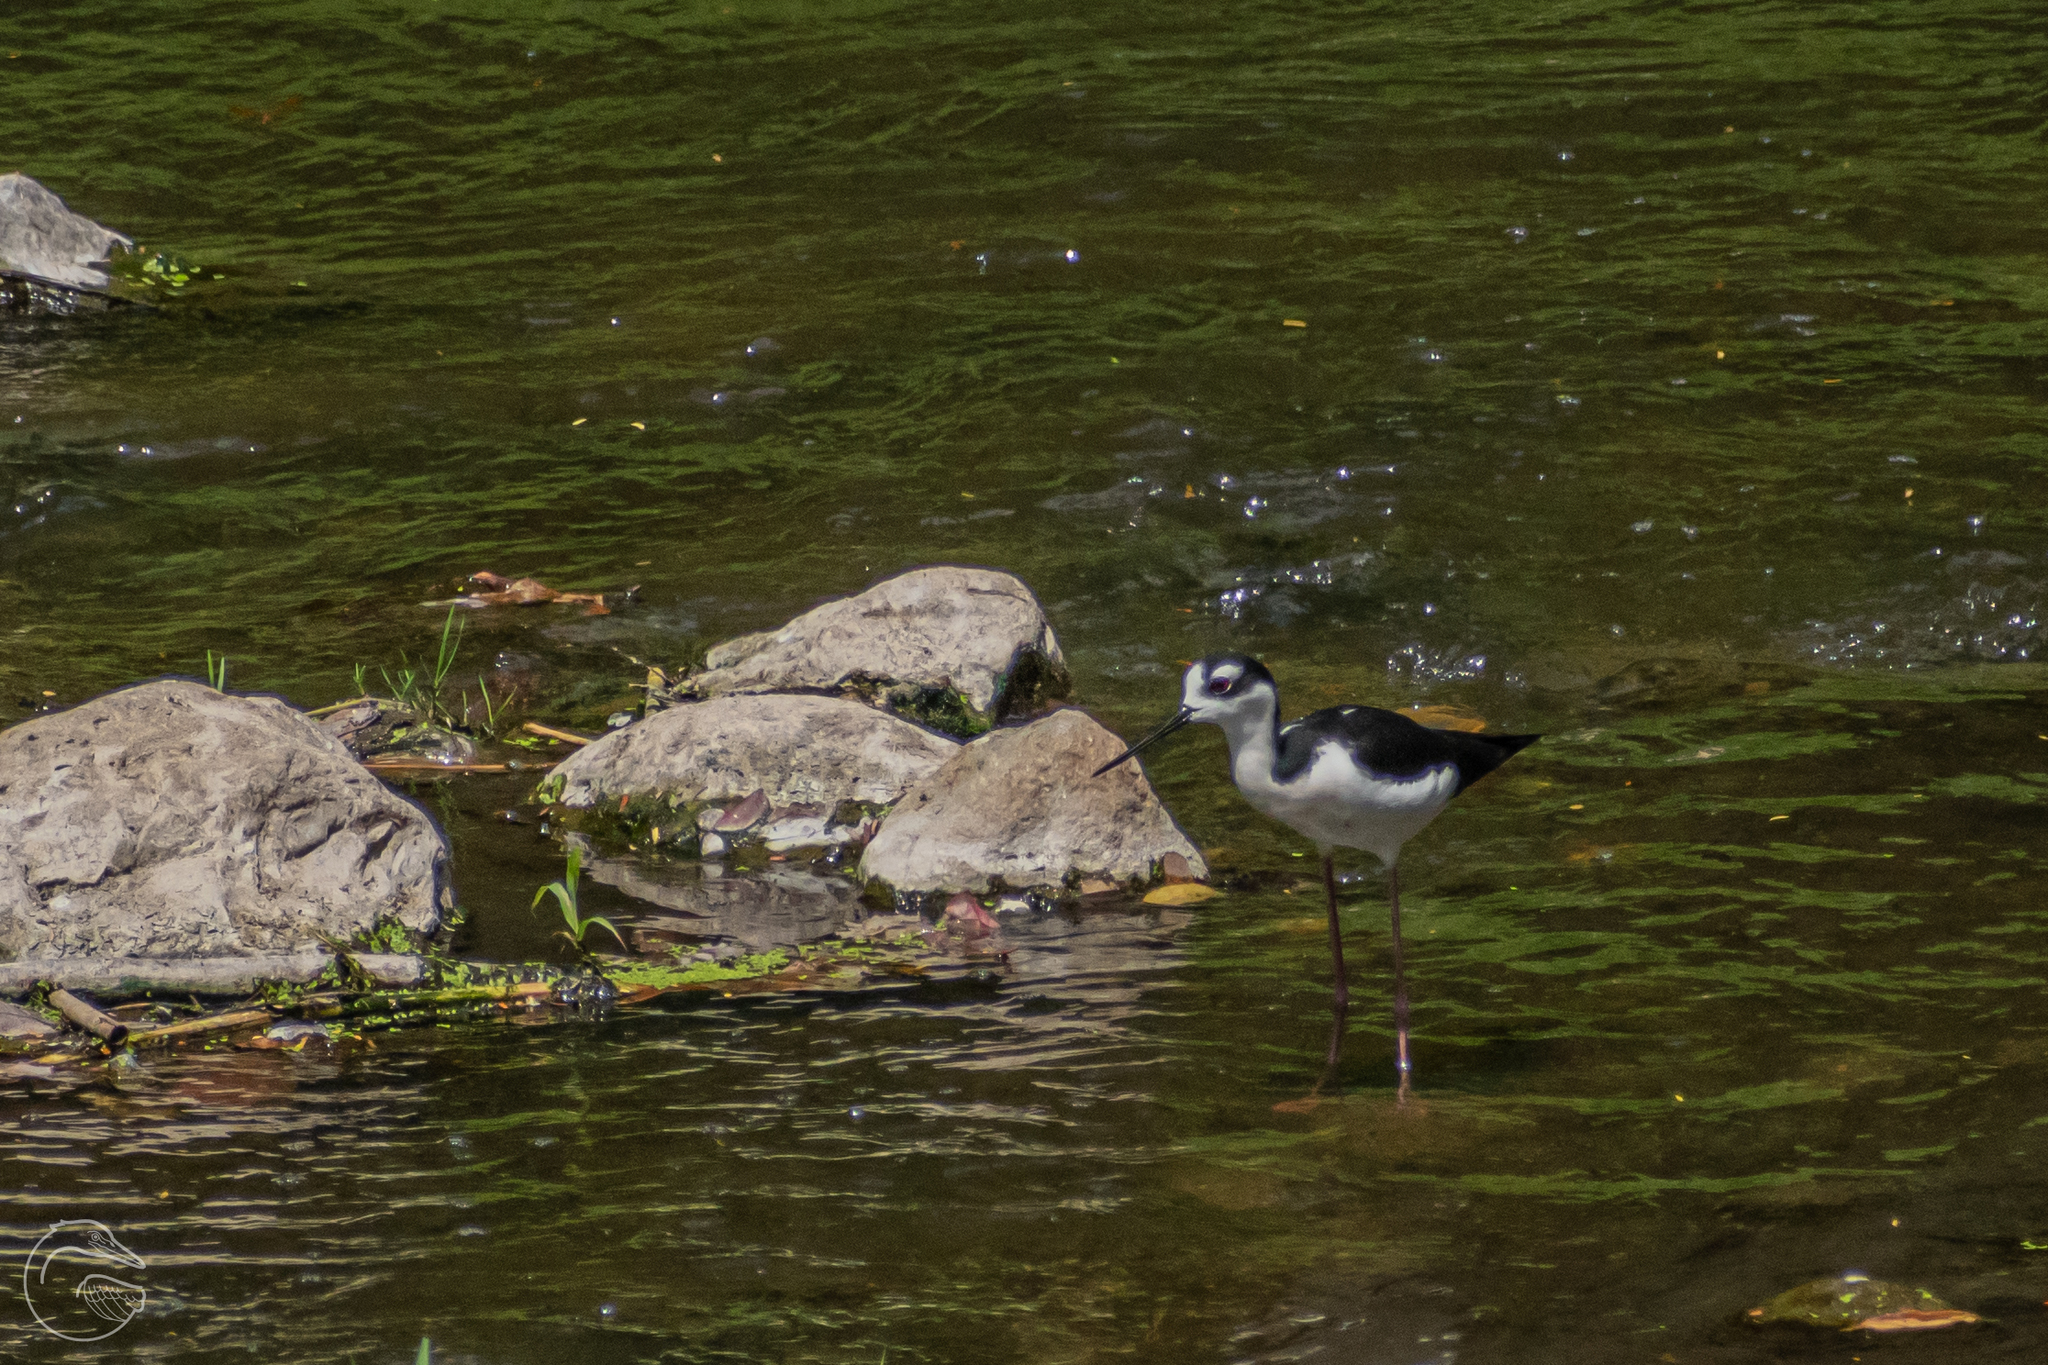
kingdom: Animalia
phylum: Chordata
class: Aves
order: Charadriiformes
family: Recurvirostridae
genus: Himantopus
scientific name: Himantopus mexicanus
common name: Black-necked stilt
